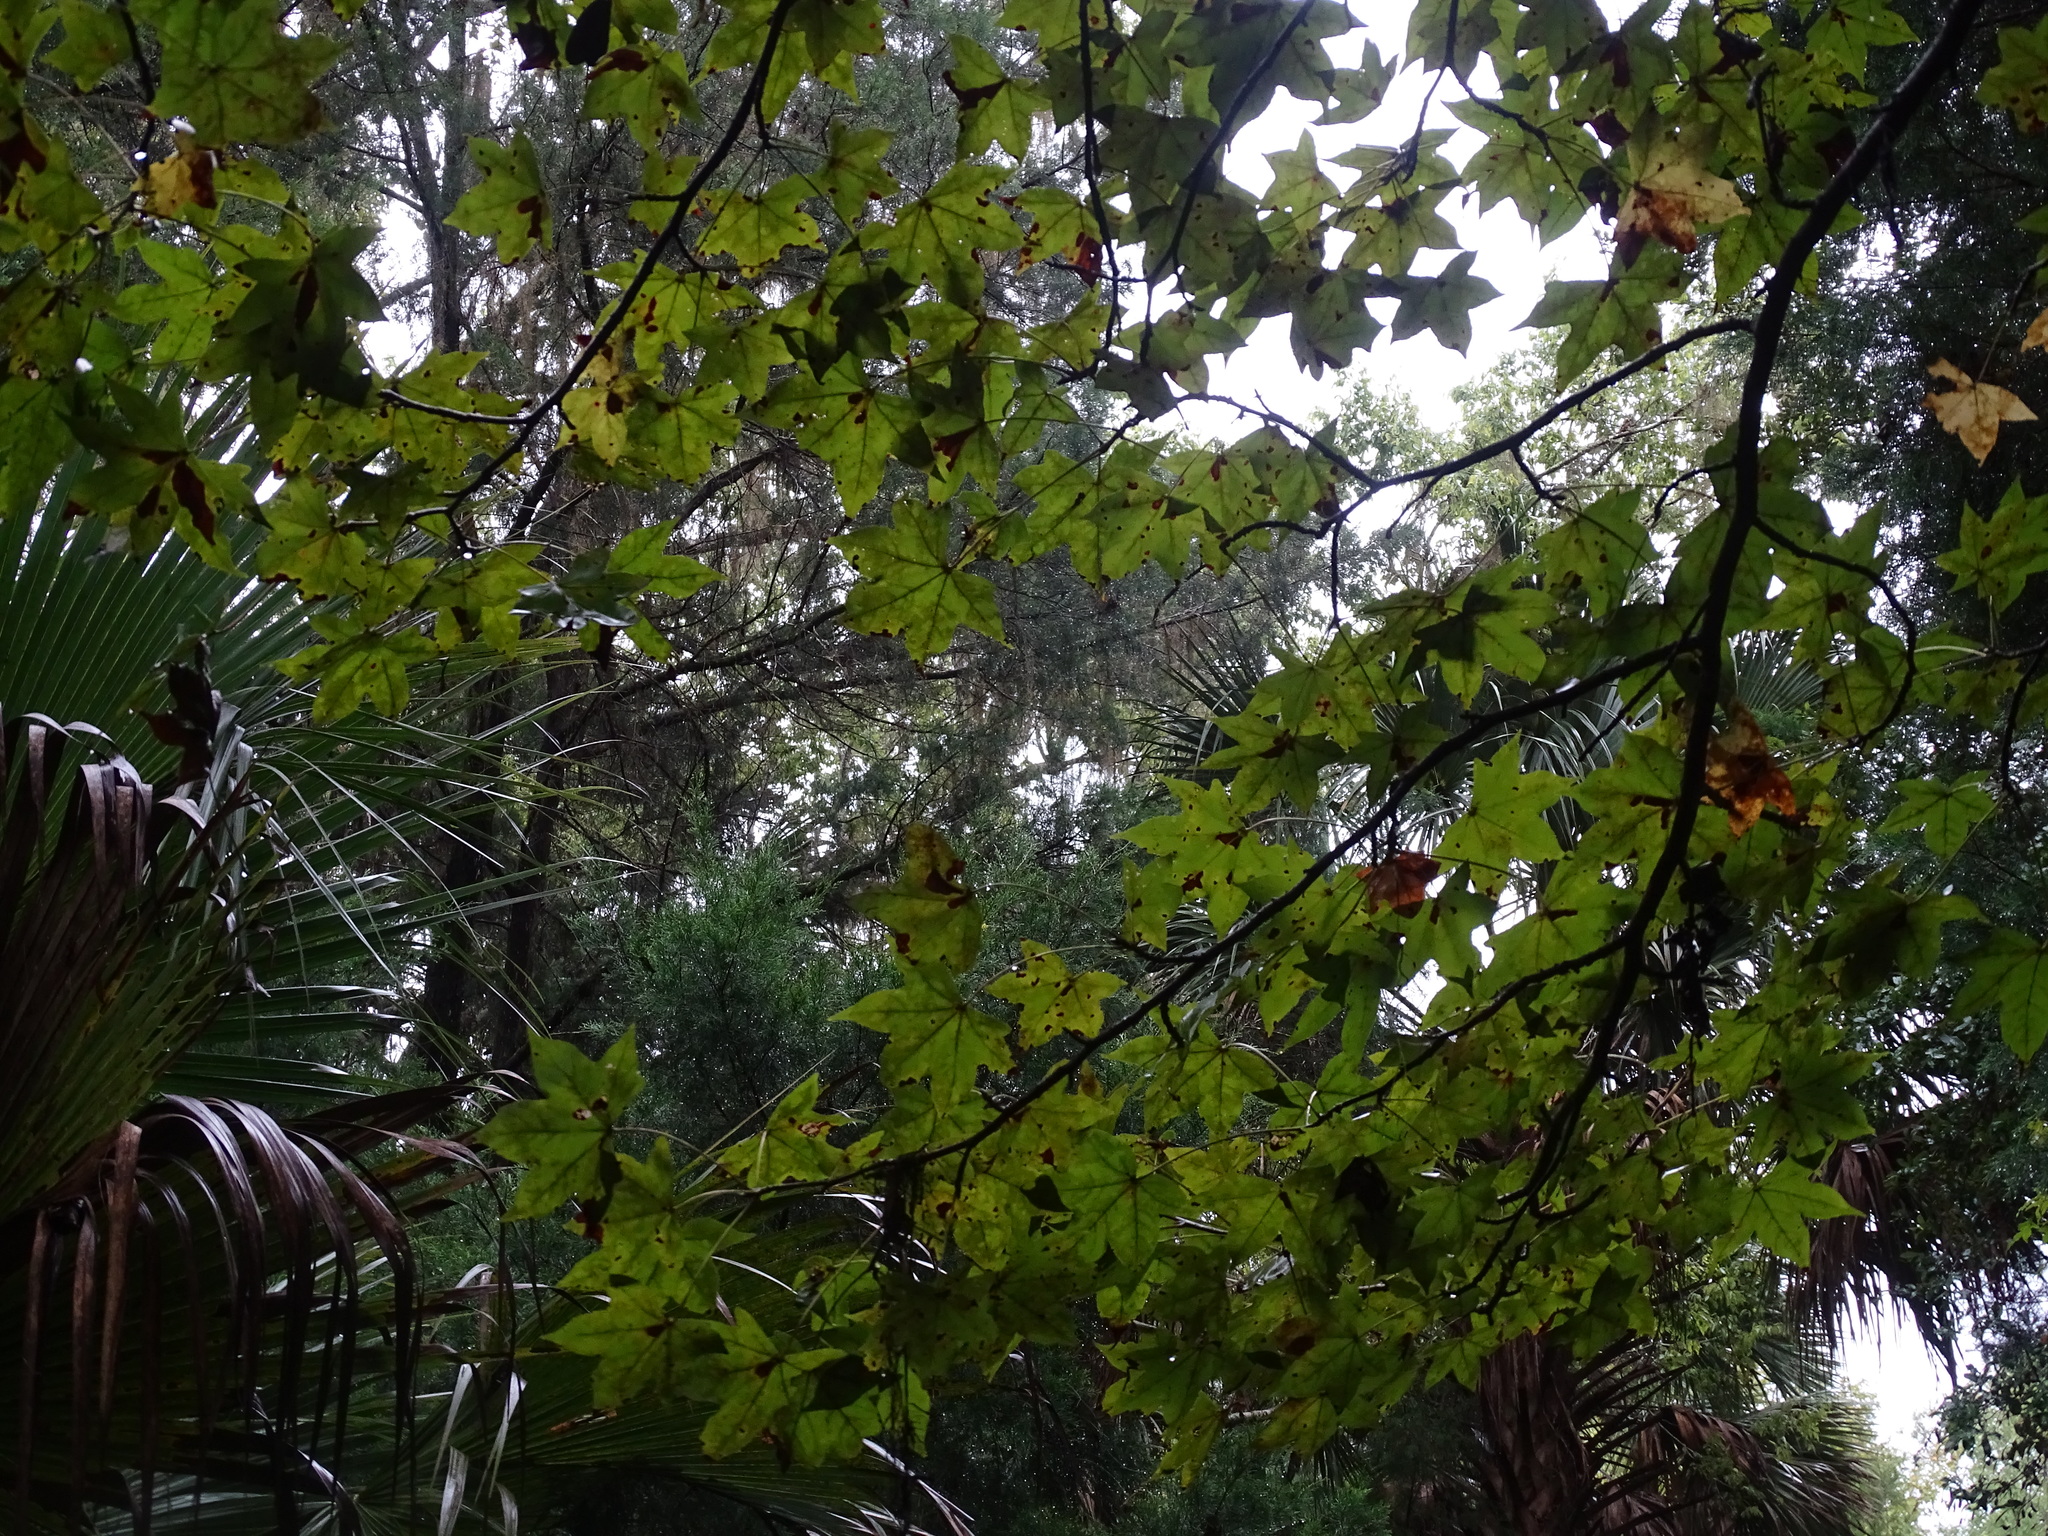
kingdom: Plantae
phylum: Tracheophyta
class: Magnoliopsida
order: Saxifragales
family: Altingiaceae
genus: Liquidambar
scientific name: Liquidambar styraciflua
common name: Sweet gum
